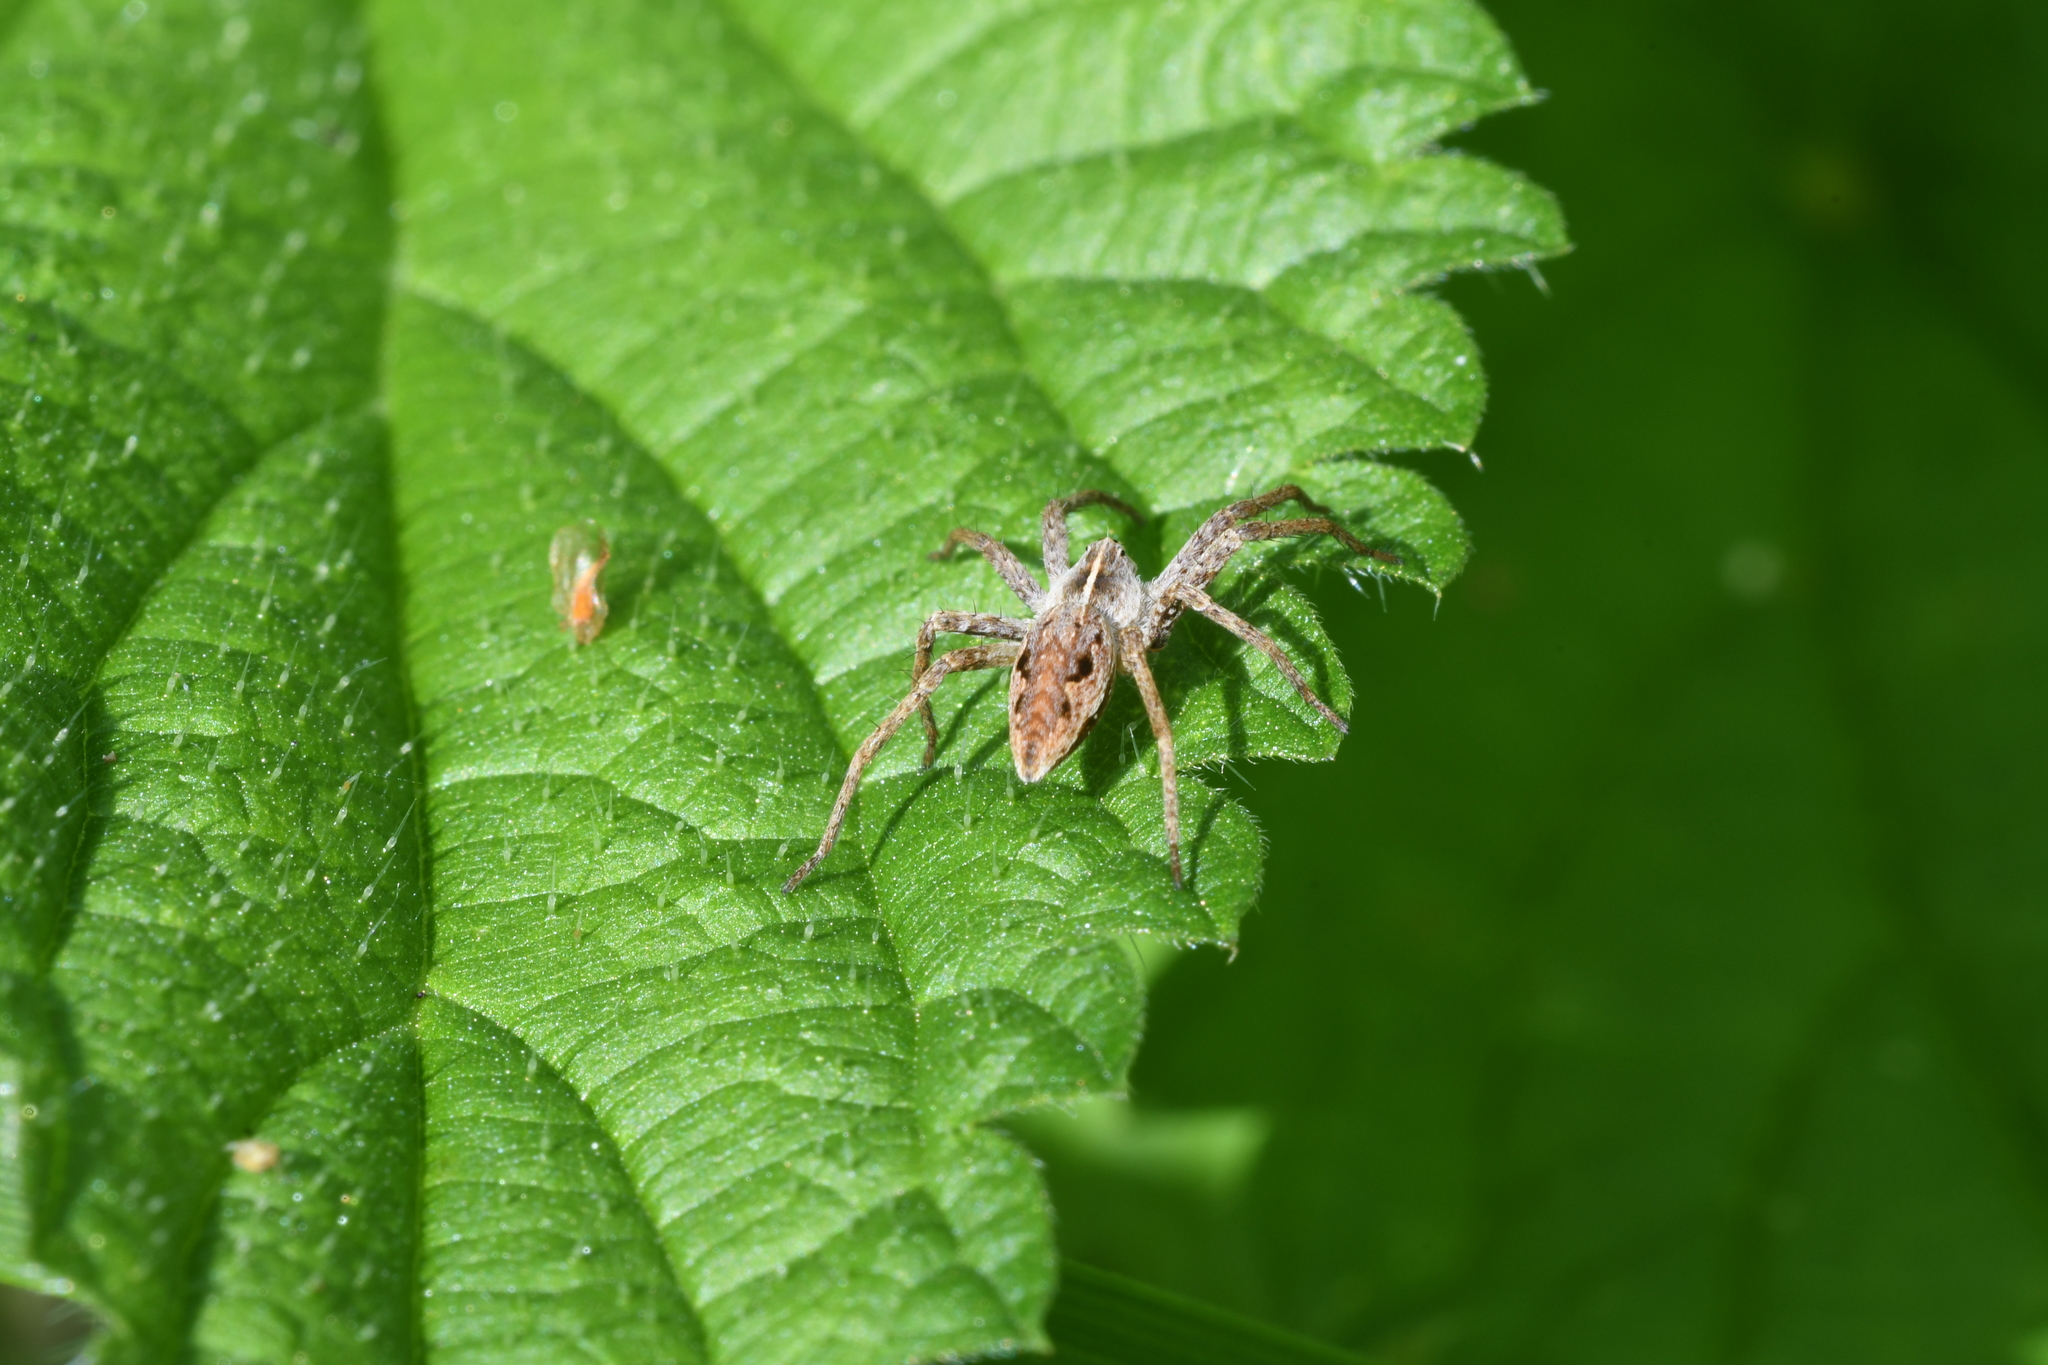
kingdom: Animalia
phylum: Arthropoda
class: Arachnida
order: Araneae
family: Pisauridae
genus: Pisaura
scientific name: Pisaura mirabilis
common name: Tent spider
